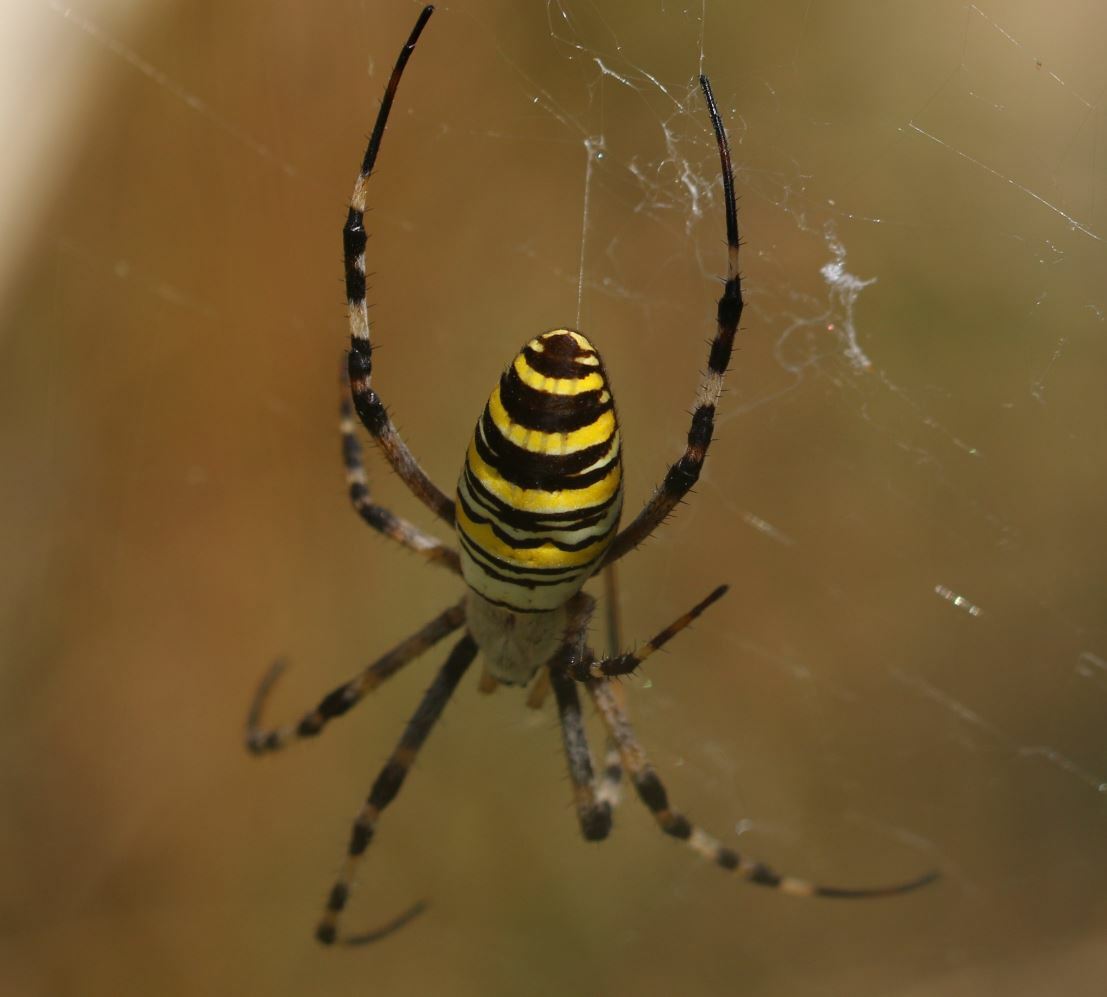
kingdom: Animalia
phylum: Arthropoda
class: Arachnida
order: Araneae
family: Araneidae
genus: Argiope
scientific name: Argiope bruennichi
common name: Wasp spider
